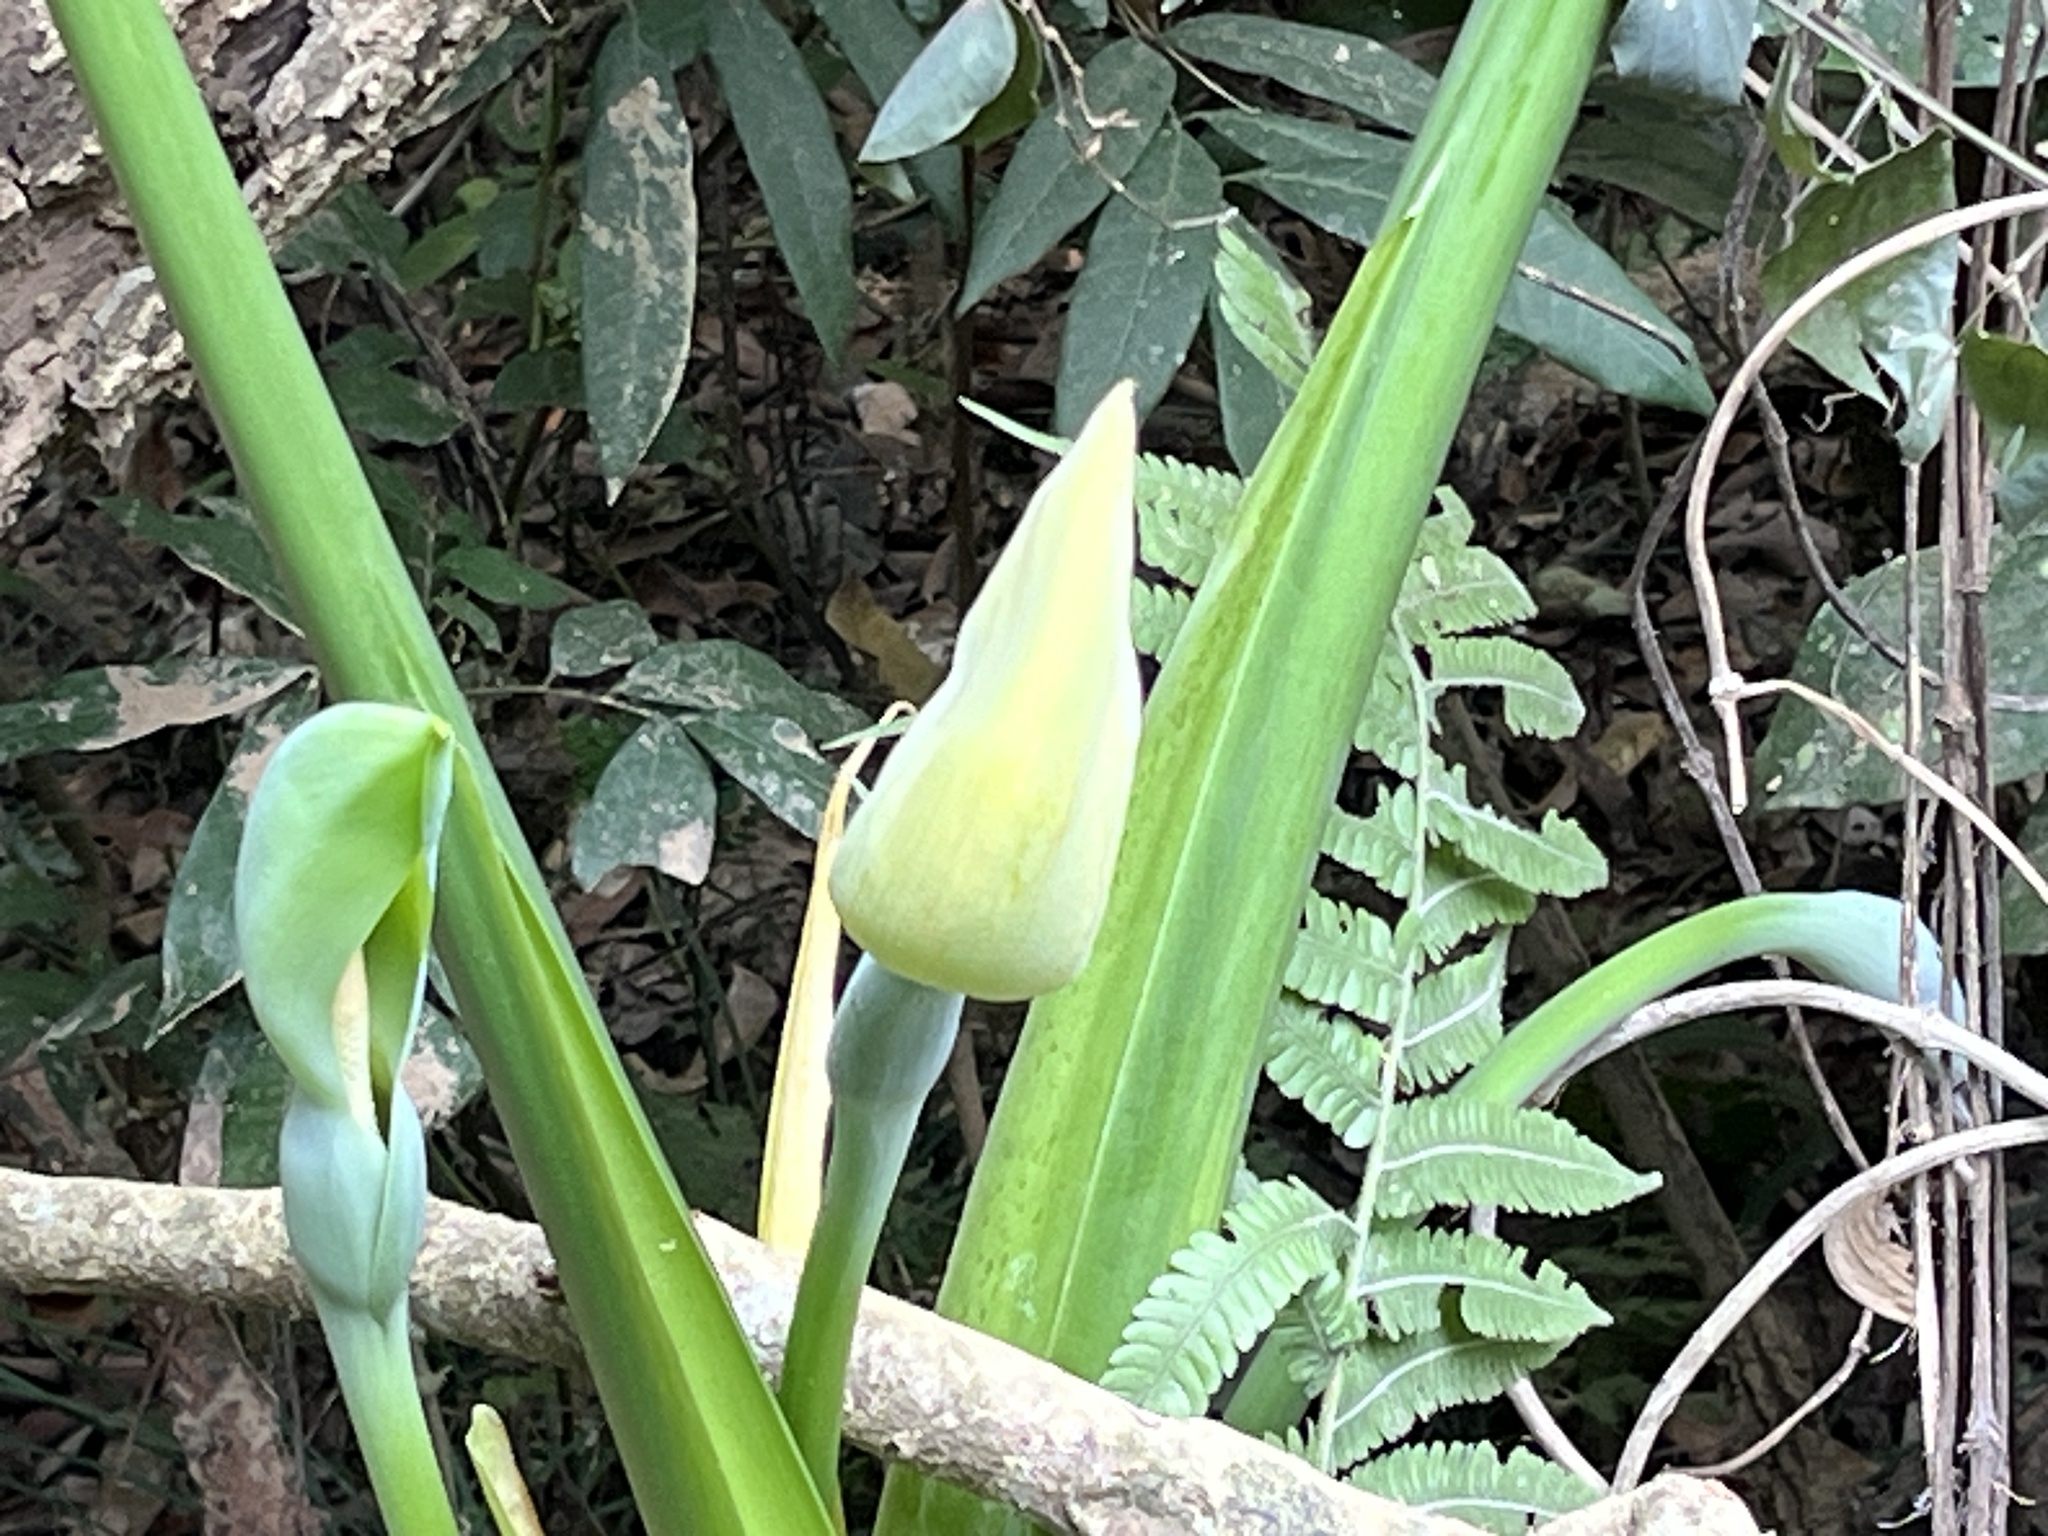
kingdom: Plantae
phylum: Tracheophyta
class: Liliopsida
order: Alismatales
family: Araceae
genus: Alocasia
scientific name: Alocasia odora
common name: Asian taro
